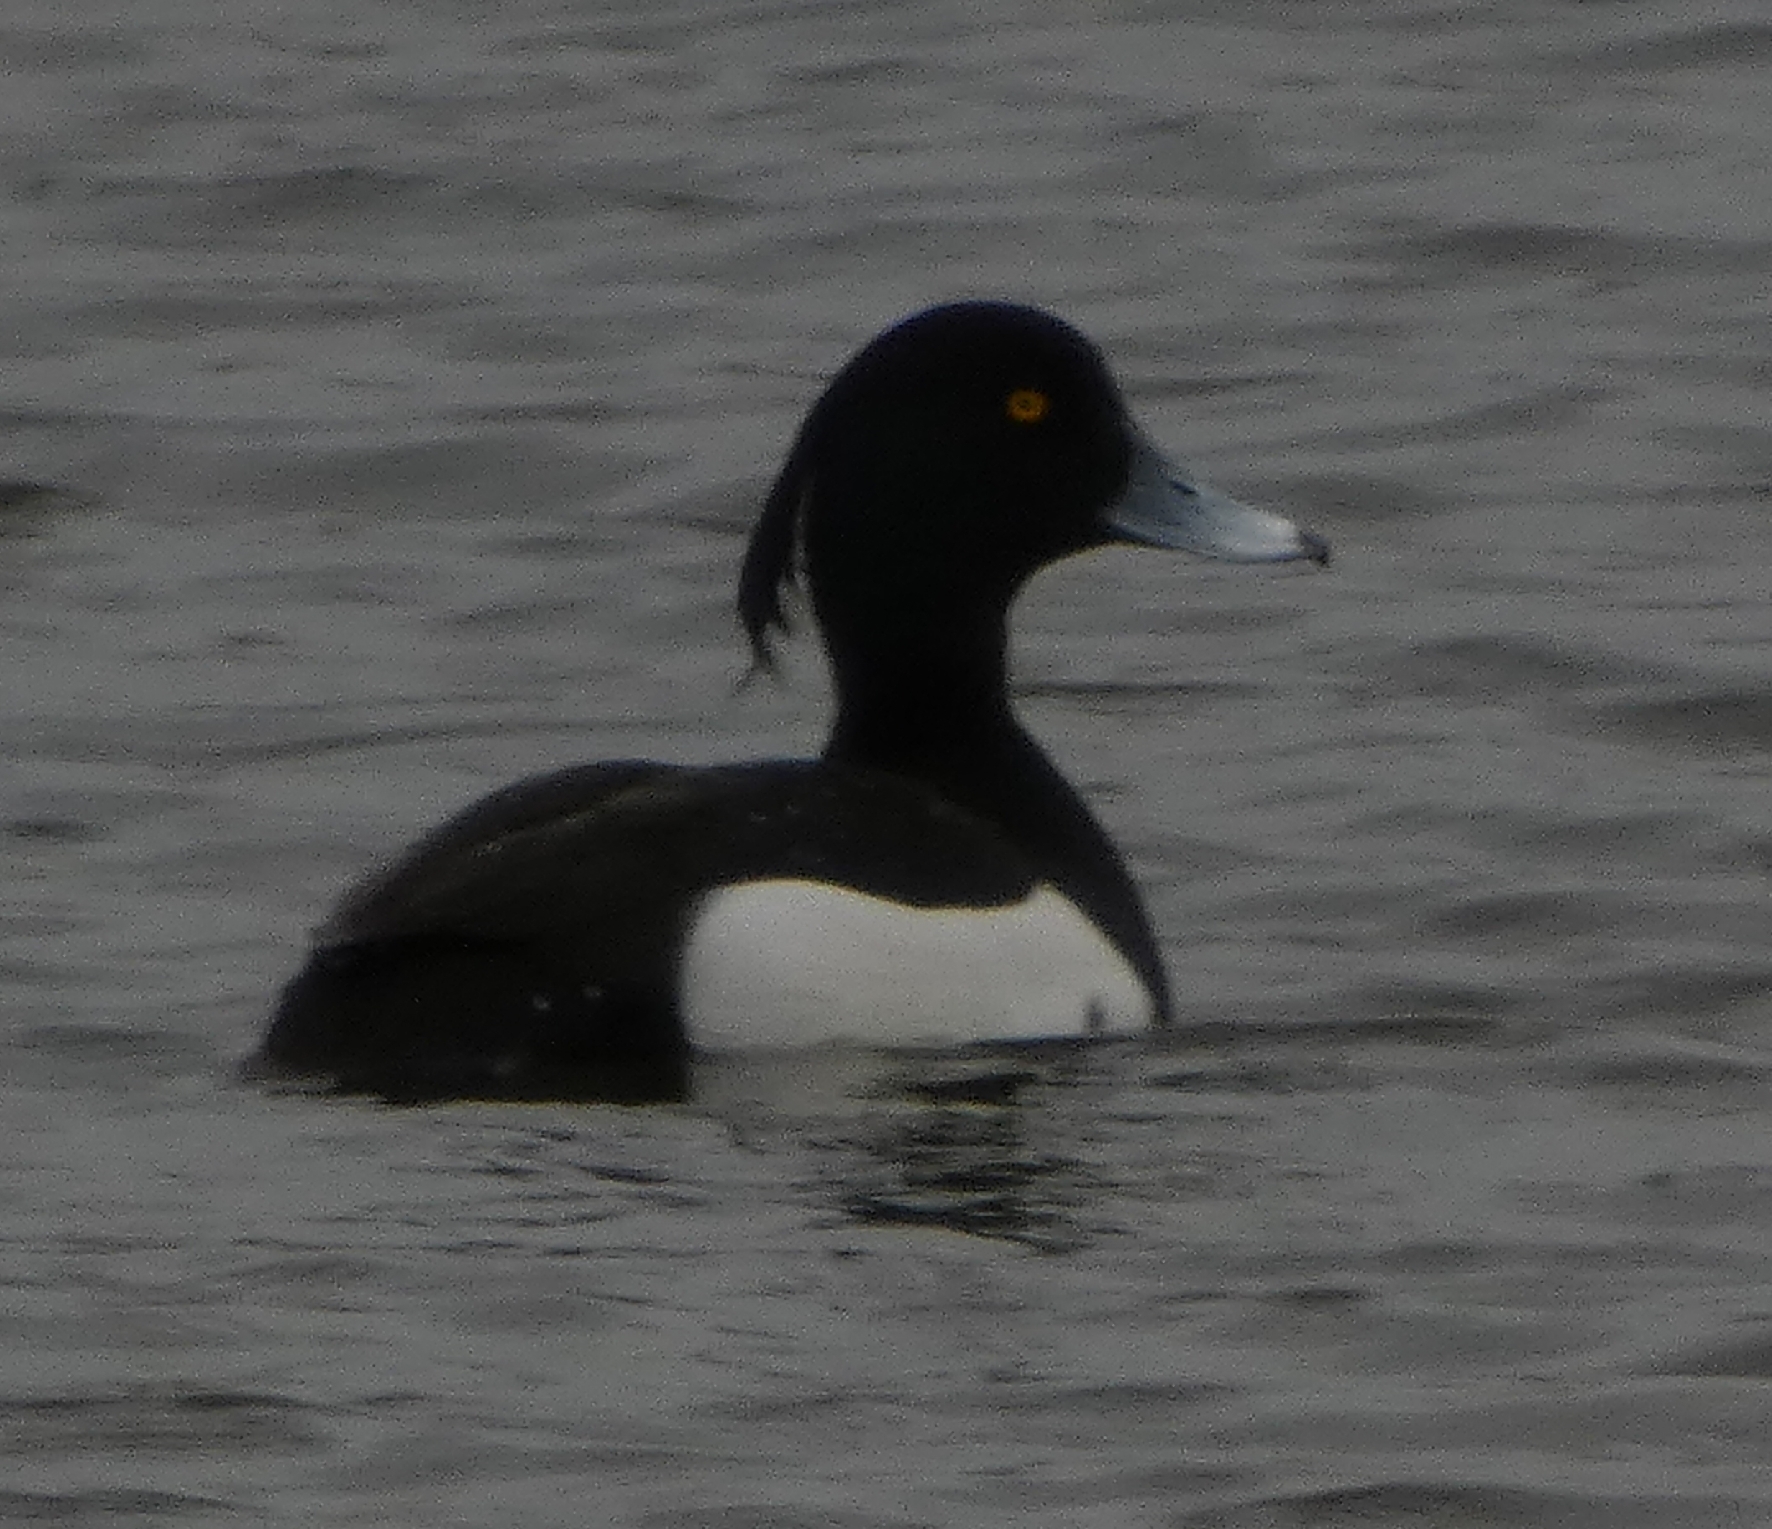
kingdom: Animalia
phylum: Chordata
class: Aves
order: Anseriformes
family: Anatidae
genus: Aythya
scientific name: Aythya fuligula
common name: Tufted duck
